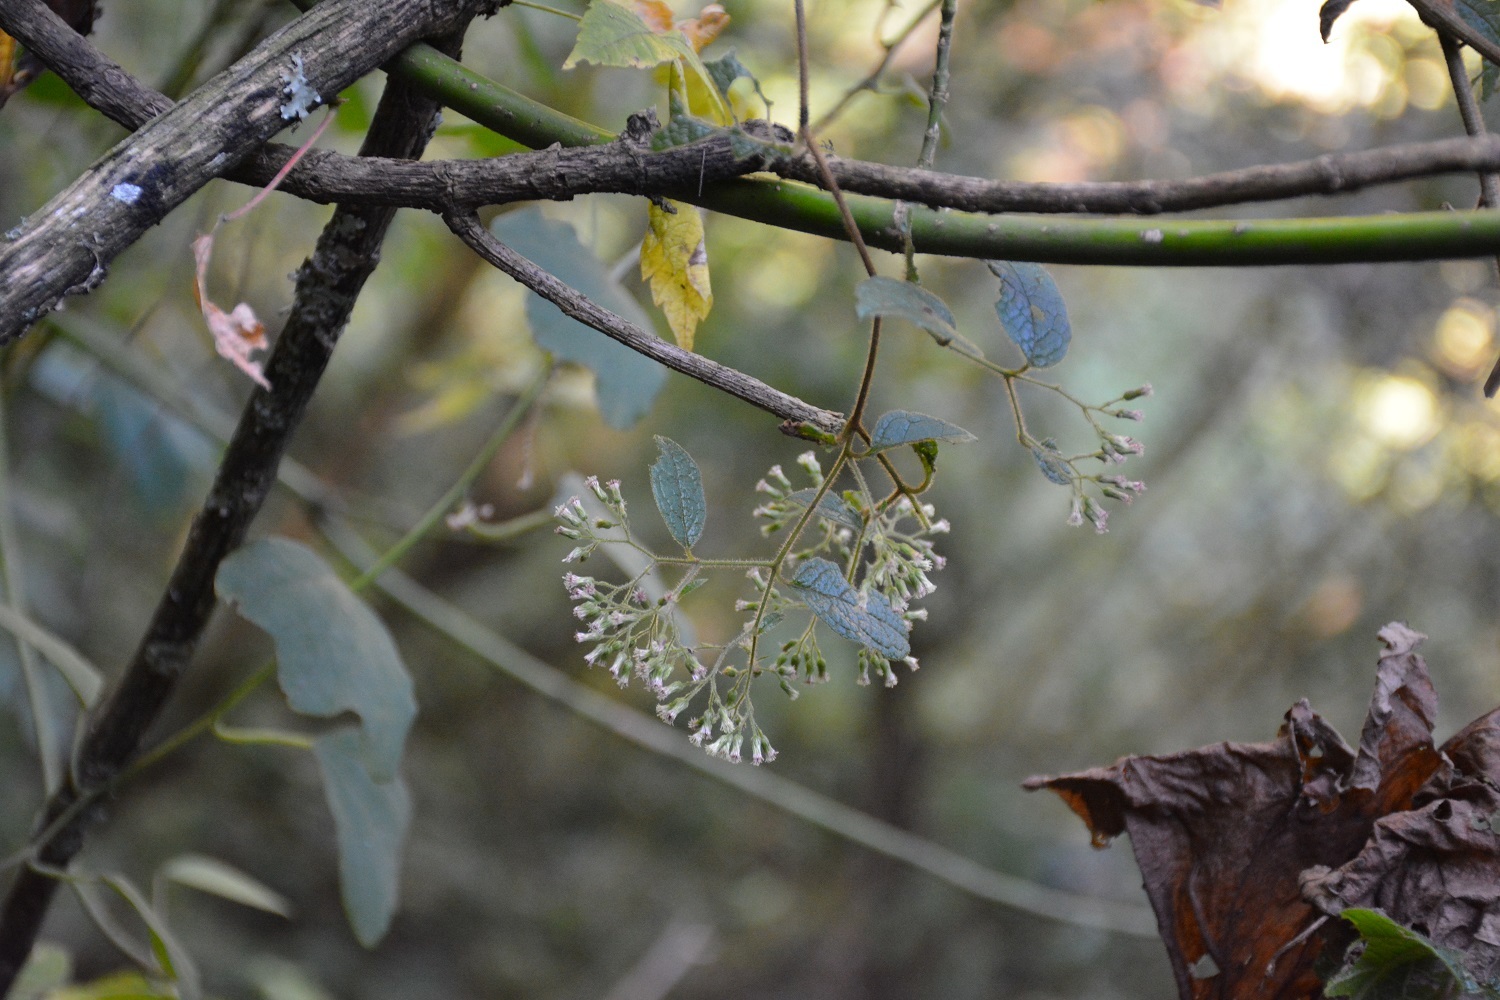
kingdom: Plantae
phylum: Tracheophyta
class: Magnoliopsida
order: Asterales
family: Asteraceae
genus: Archibaccharis
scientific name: Archibaccharis schiedeana
